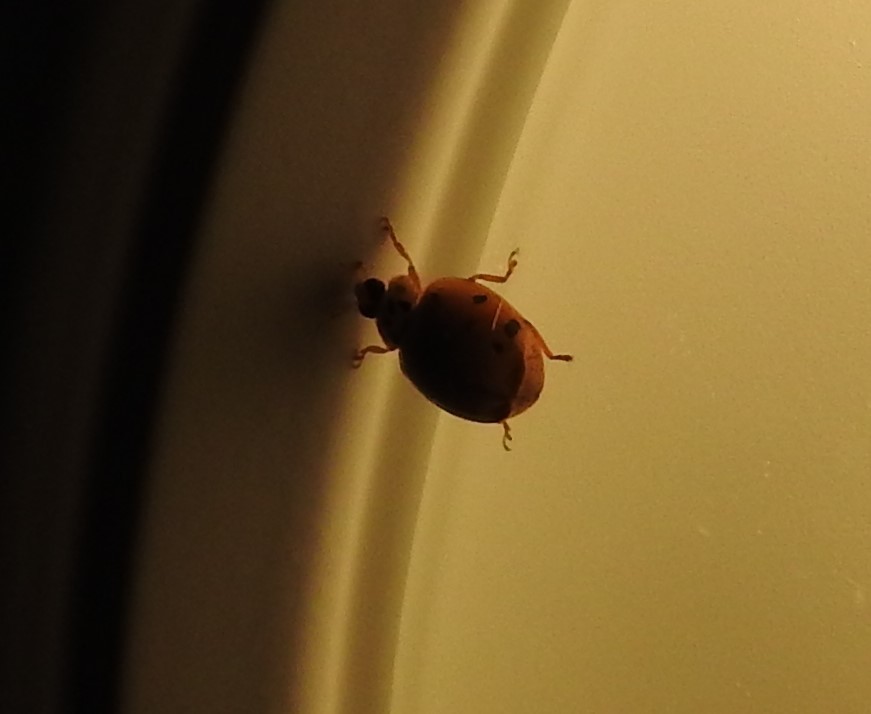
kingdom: Animalia
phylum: Arthropoda
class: Insecta
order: Coleoptera
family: Coccinellidae
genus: Harmonia
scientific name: Harmonia axyridis
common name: Harlequin ladybird
